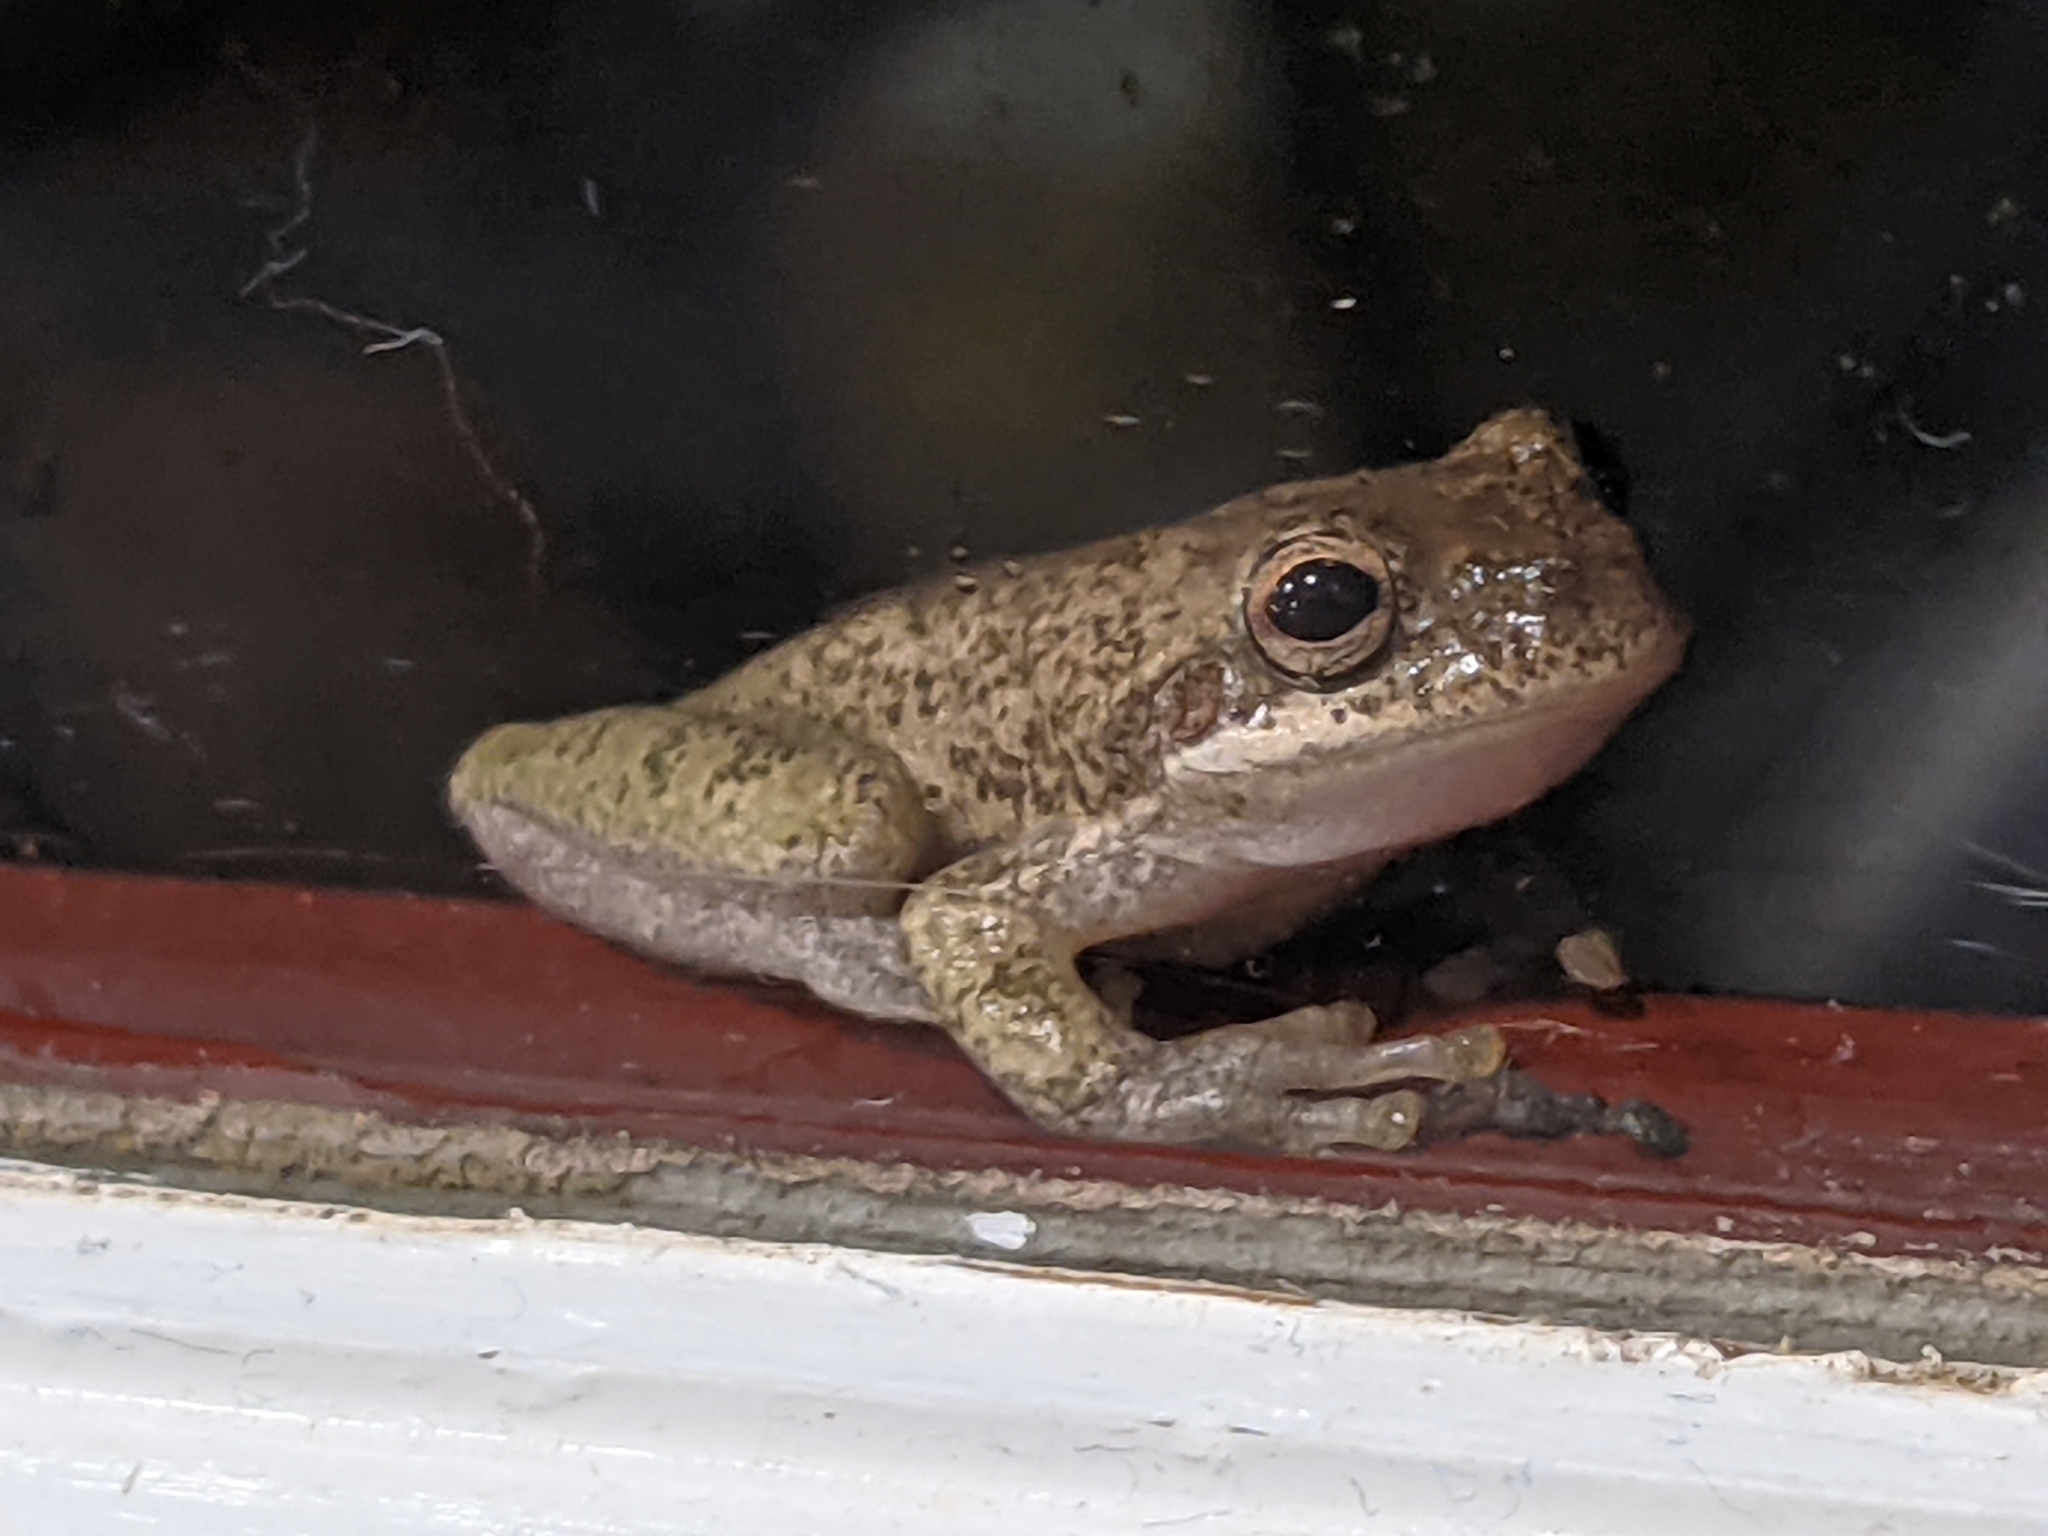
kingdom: Animalia
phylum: Chordata
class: Amphibia
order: Anura
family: Hylidae
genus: Dryophytes
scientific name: Dryophytes squirellus
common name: Squirrel treefrog
